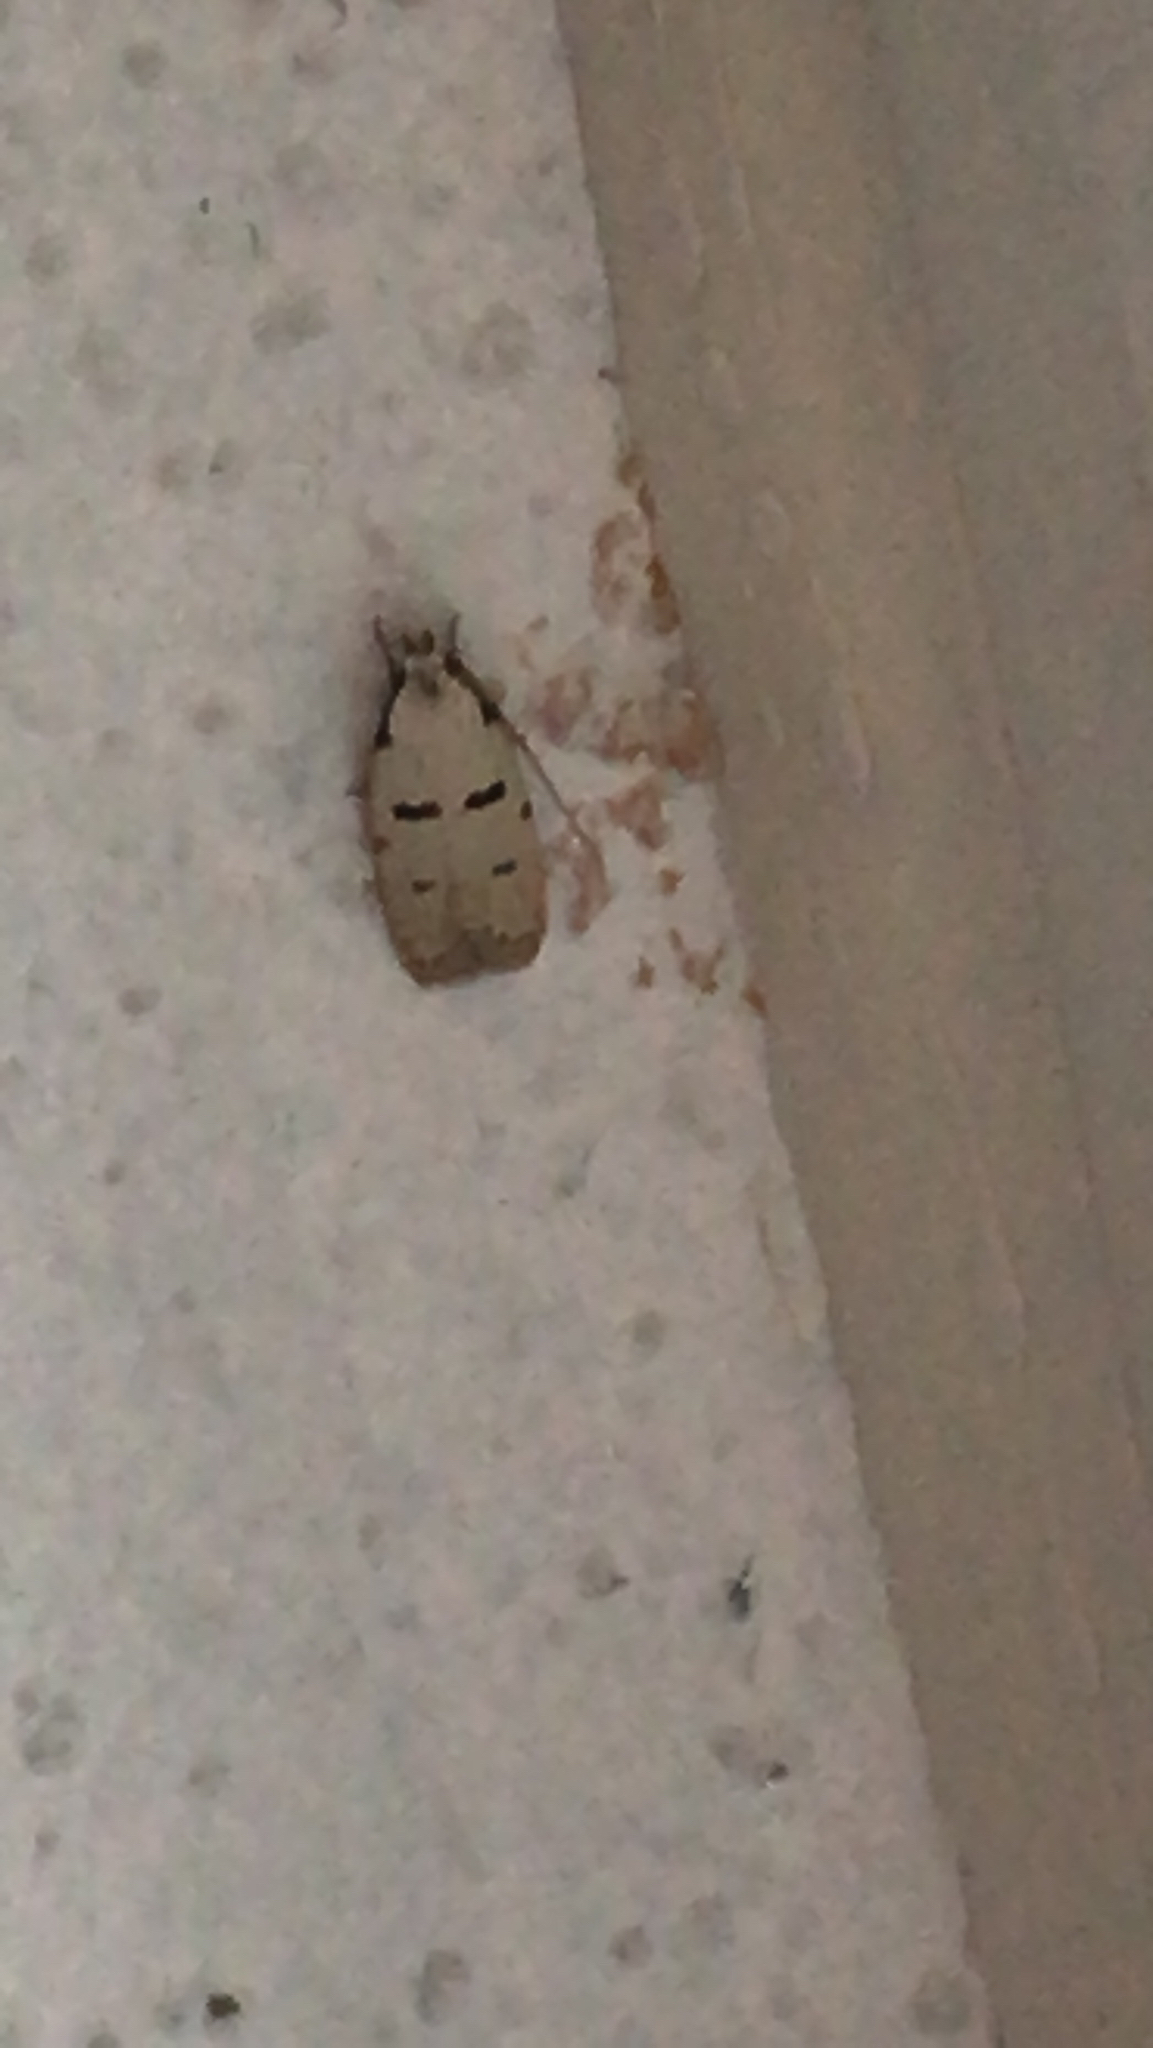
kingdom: Animalia
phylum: Arthropoda
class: Insecta
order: Lepidoptera
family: Autostichidae
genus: Stibaromacha
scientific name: Stibaromacha ratella
